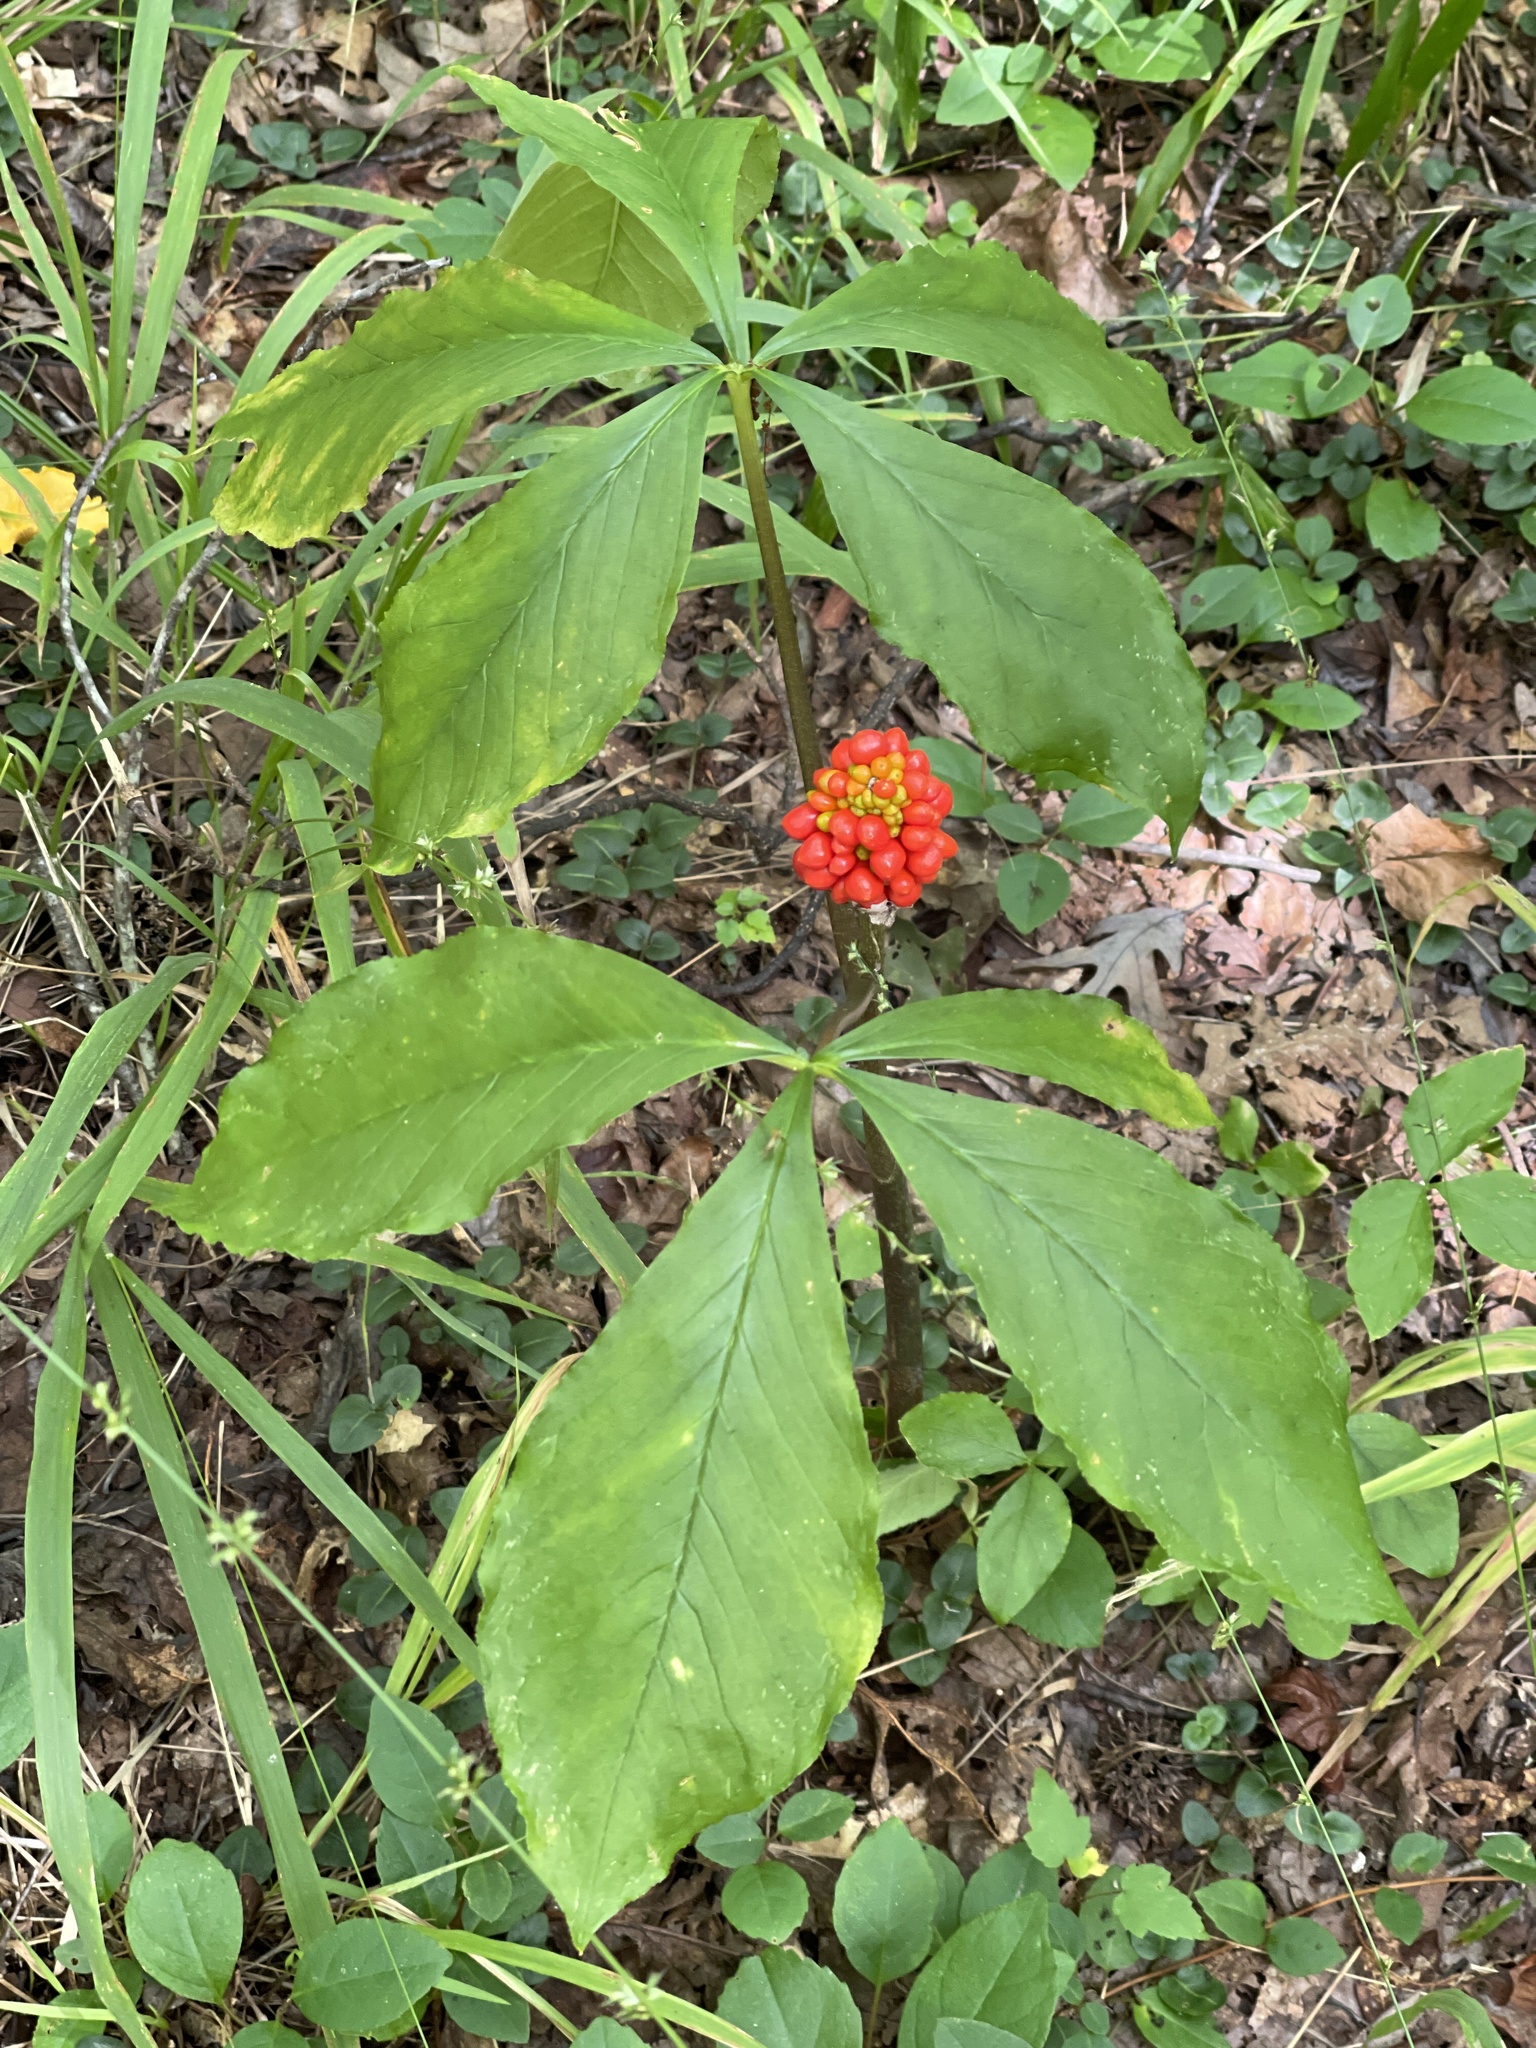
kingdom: Plantae
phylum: Tracheophyta
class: Liliopsida
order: Alismatales
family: Araceae
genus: Arisaema
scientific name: Arisaema quinatum
